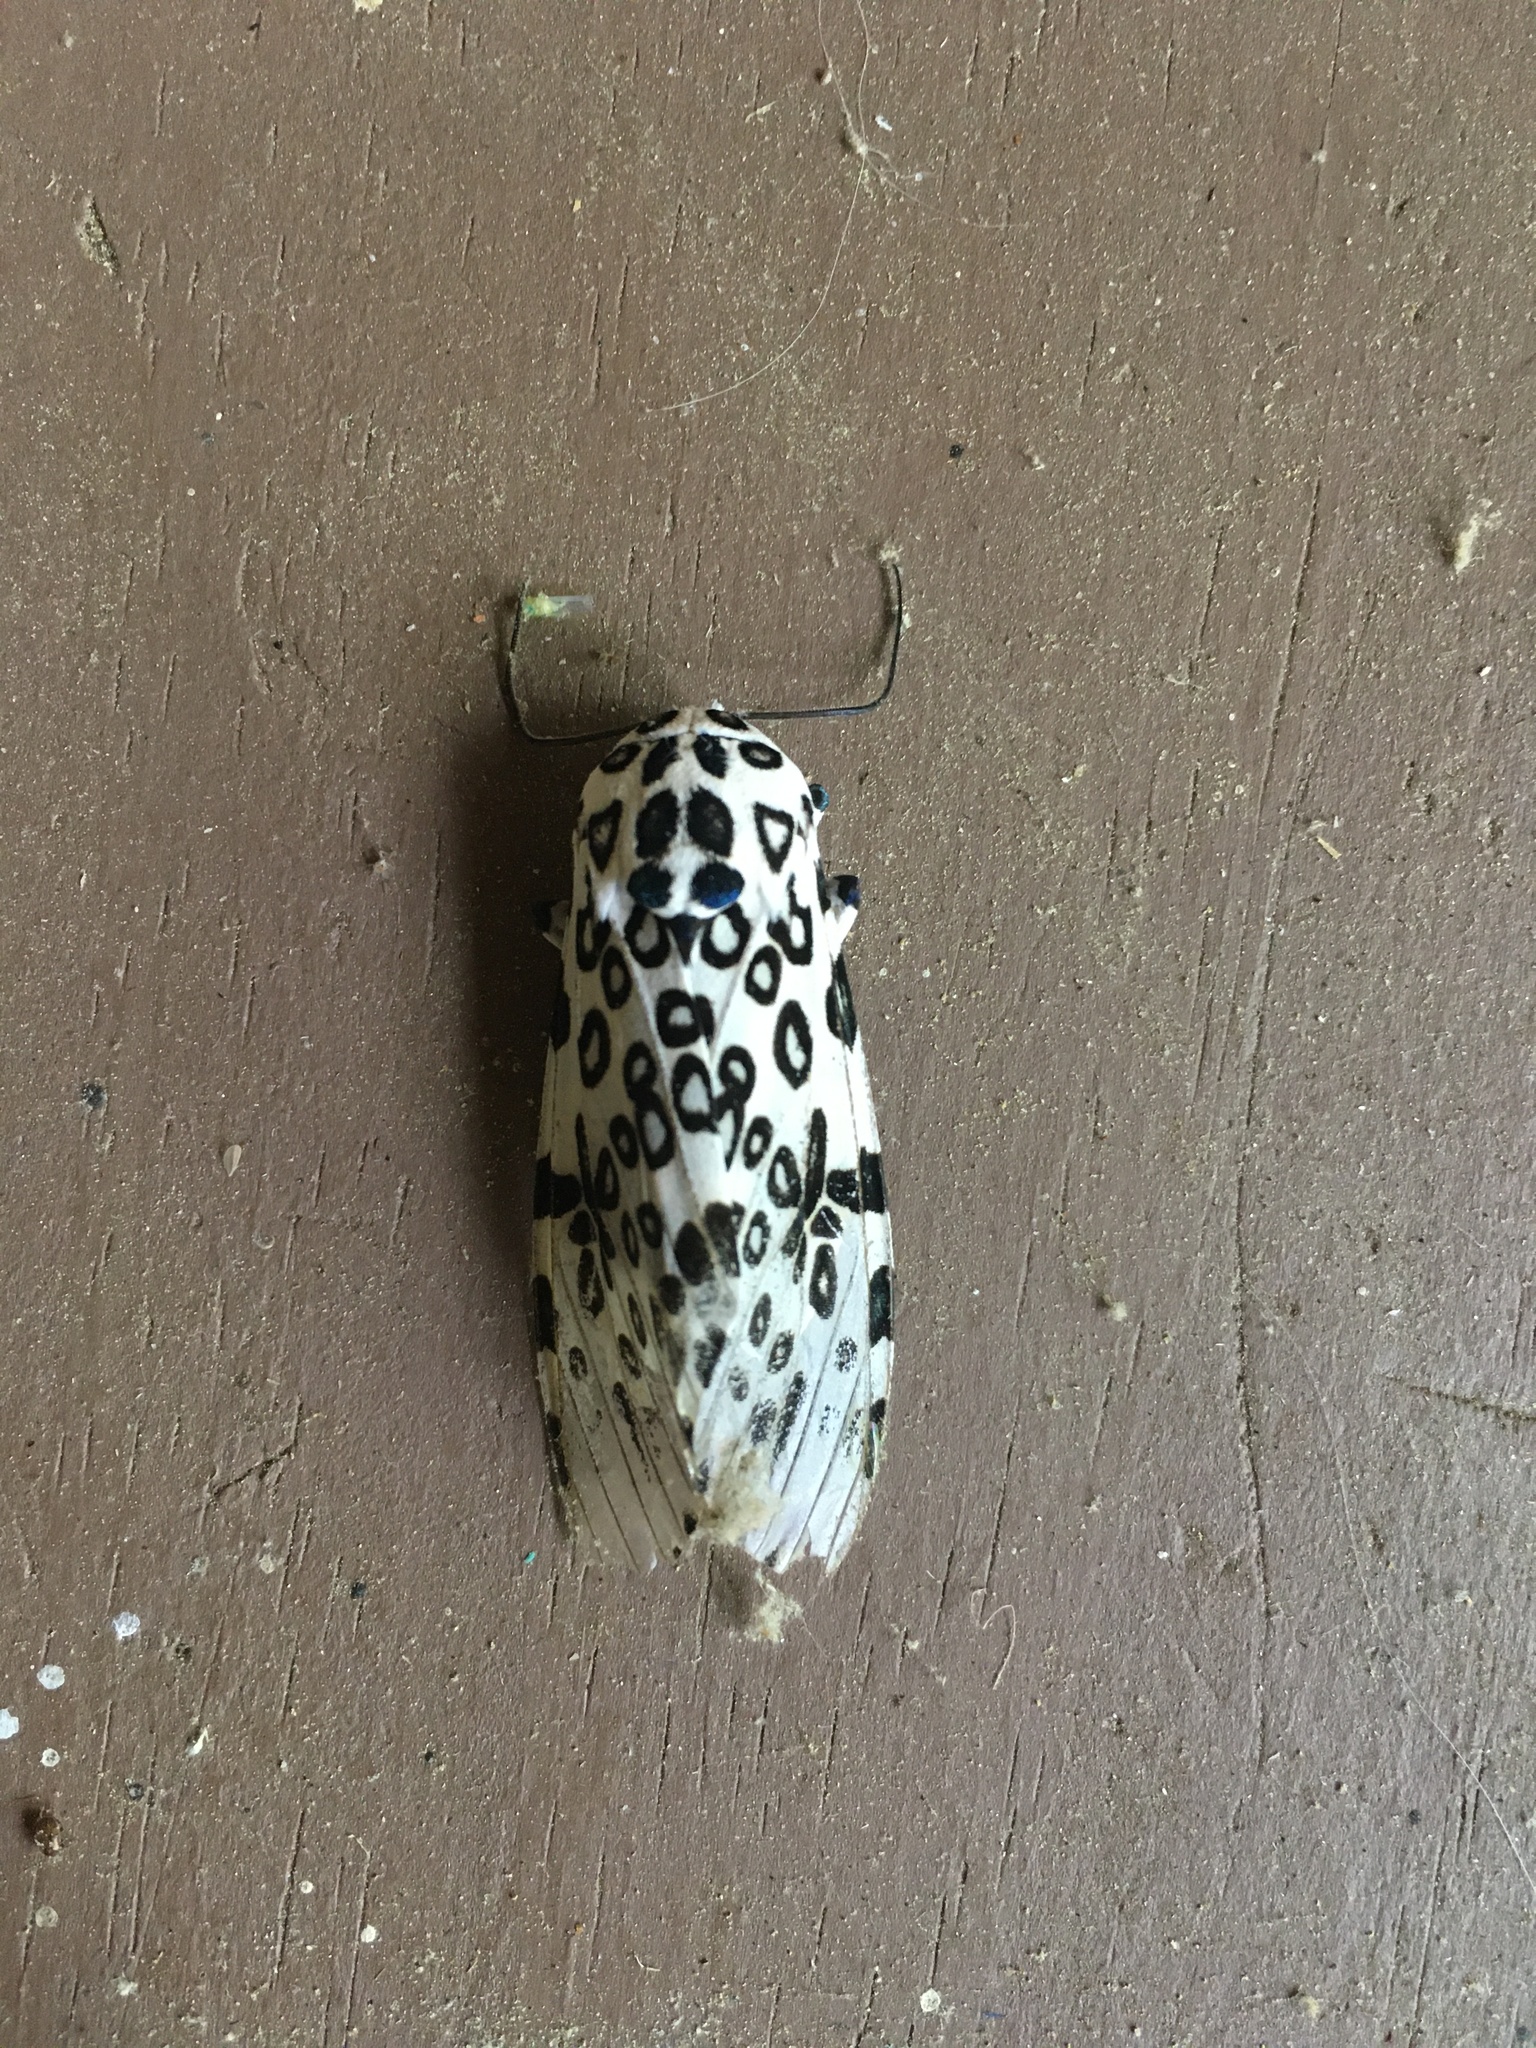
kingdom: Animalia
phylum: Arthropoda
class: Insecta
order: Lepidoptera
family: Erebidae
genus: Hypercompe
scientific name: Hypercompe scribonia
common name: Giant leopard moth
